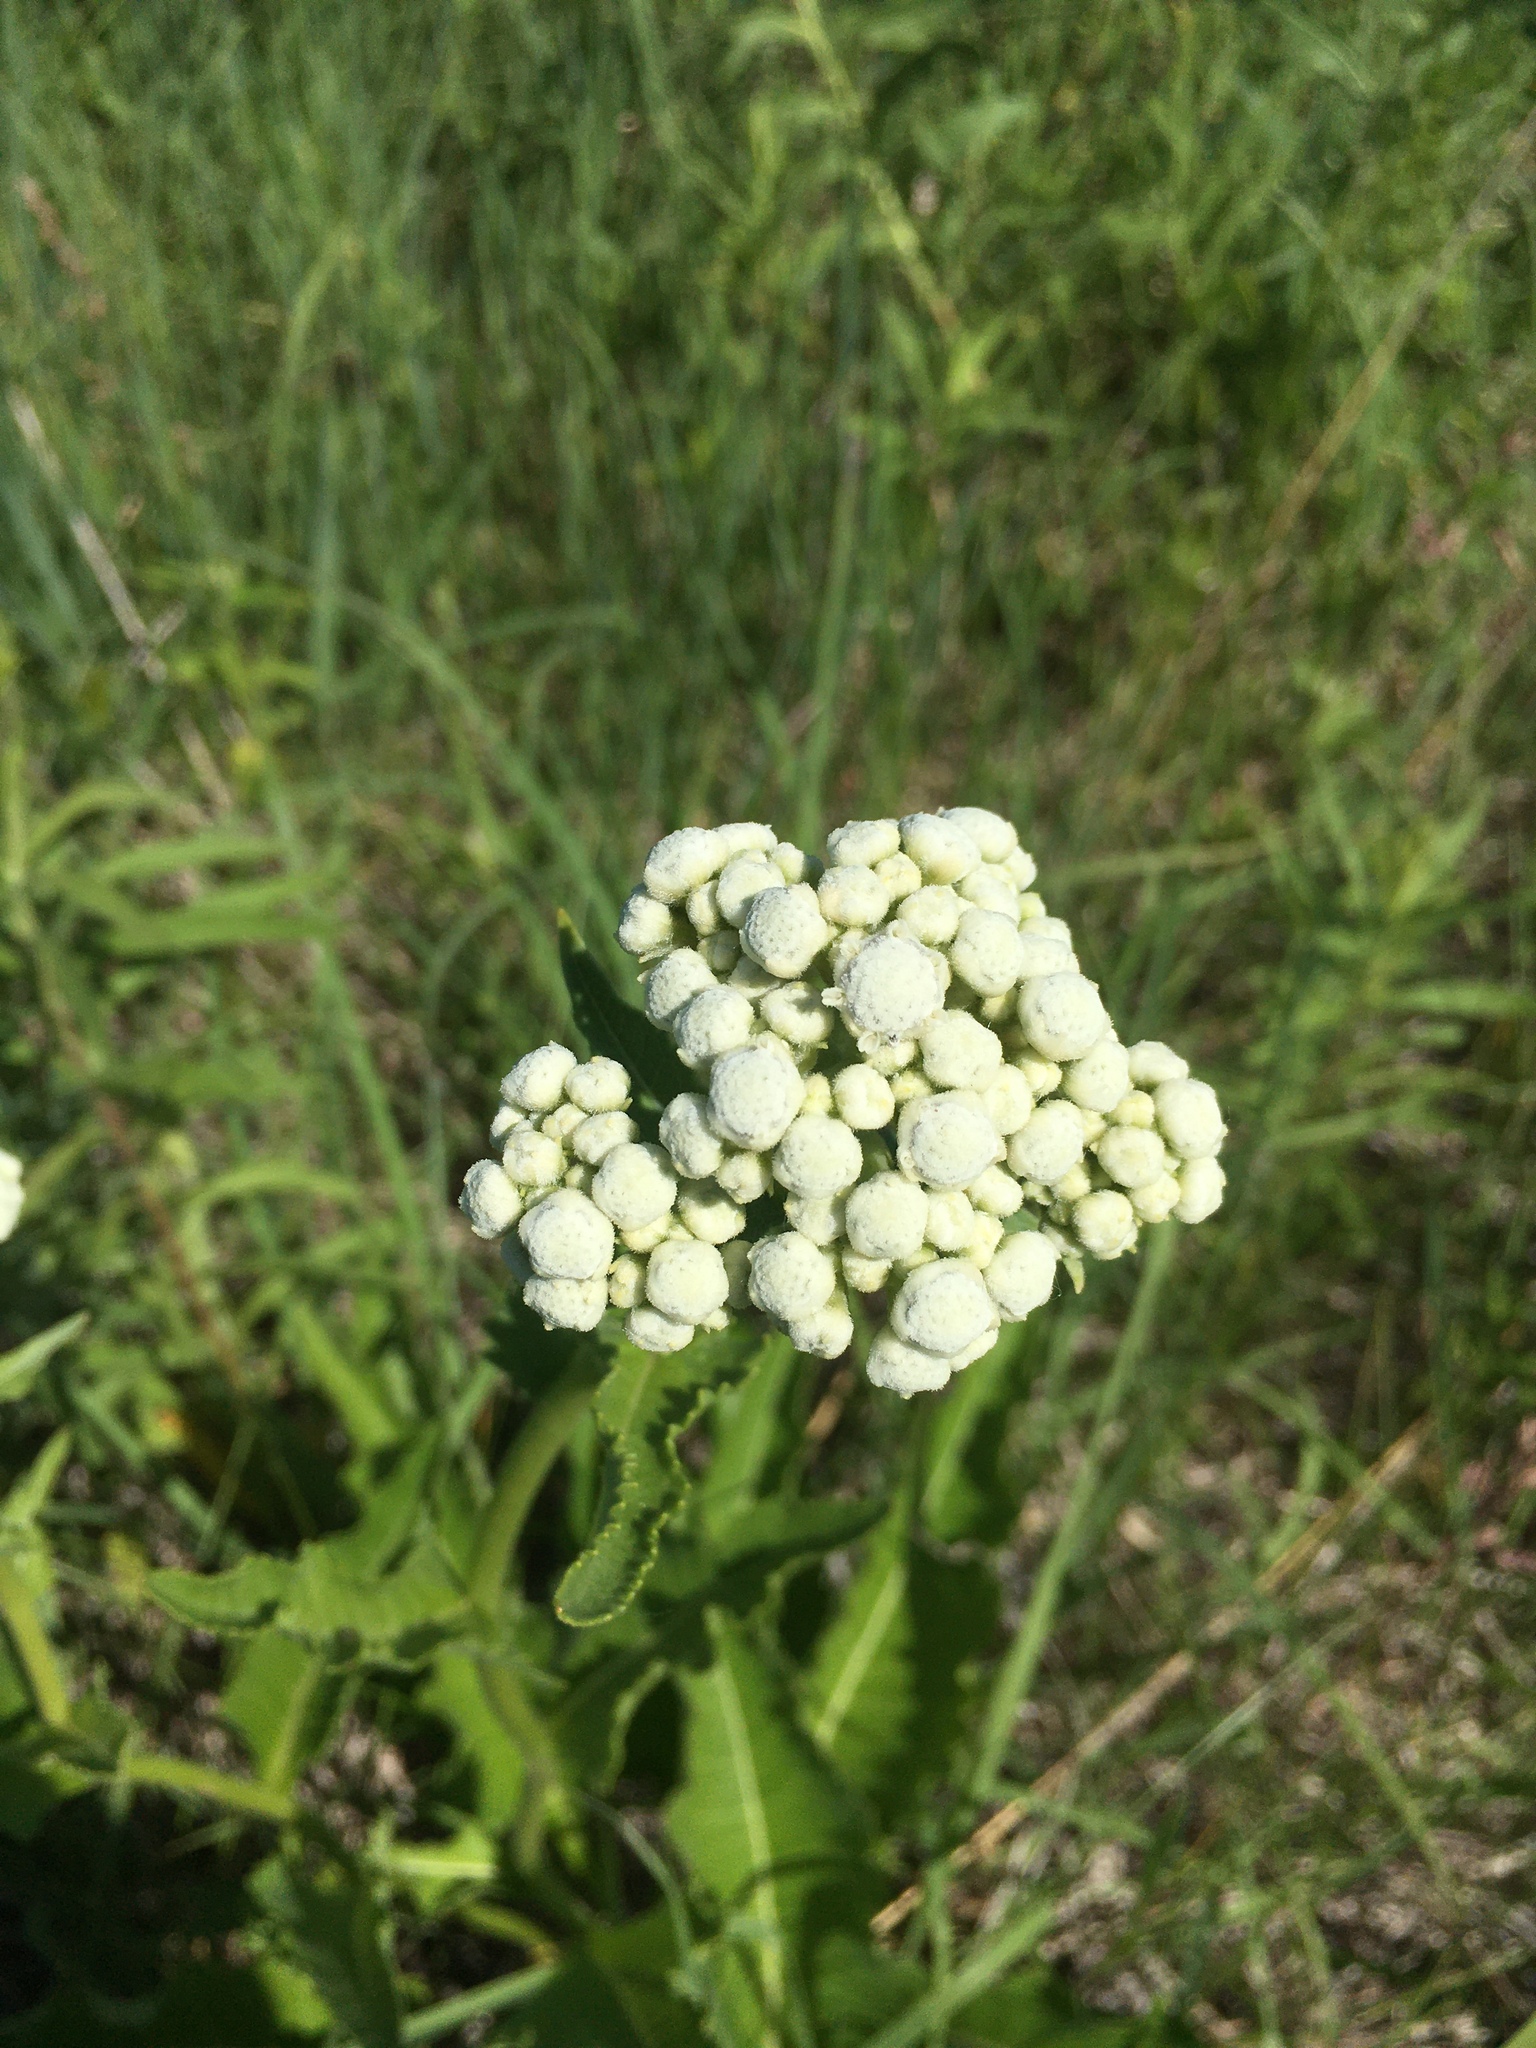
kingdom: Plantae
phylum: Tracheophyta
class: Magnoliopsida
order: Asterales
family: Asteraceae
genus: Parthenium
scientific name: Parthenium integrifolium
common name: American feverfew
